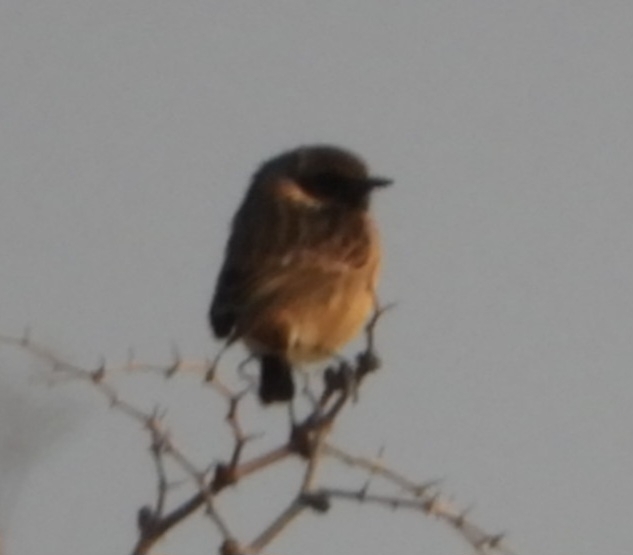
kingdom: Animalia
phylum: Chordata
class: Aves
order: Passeriformes
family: Muscicapidae
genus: Saxicola
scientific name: Saxicola rubicola
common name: European stonechat
